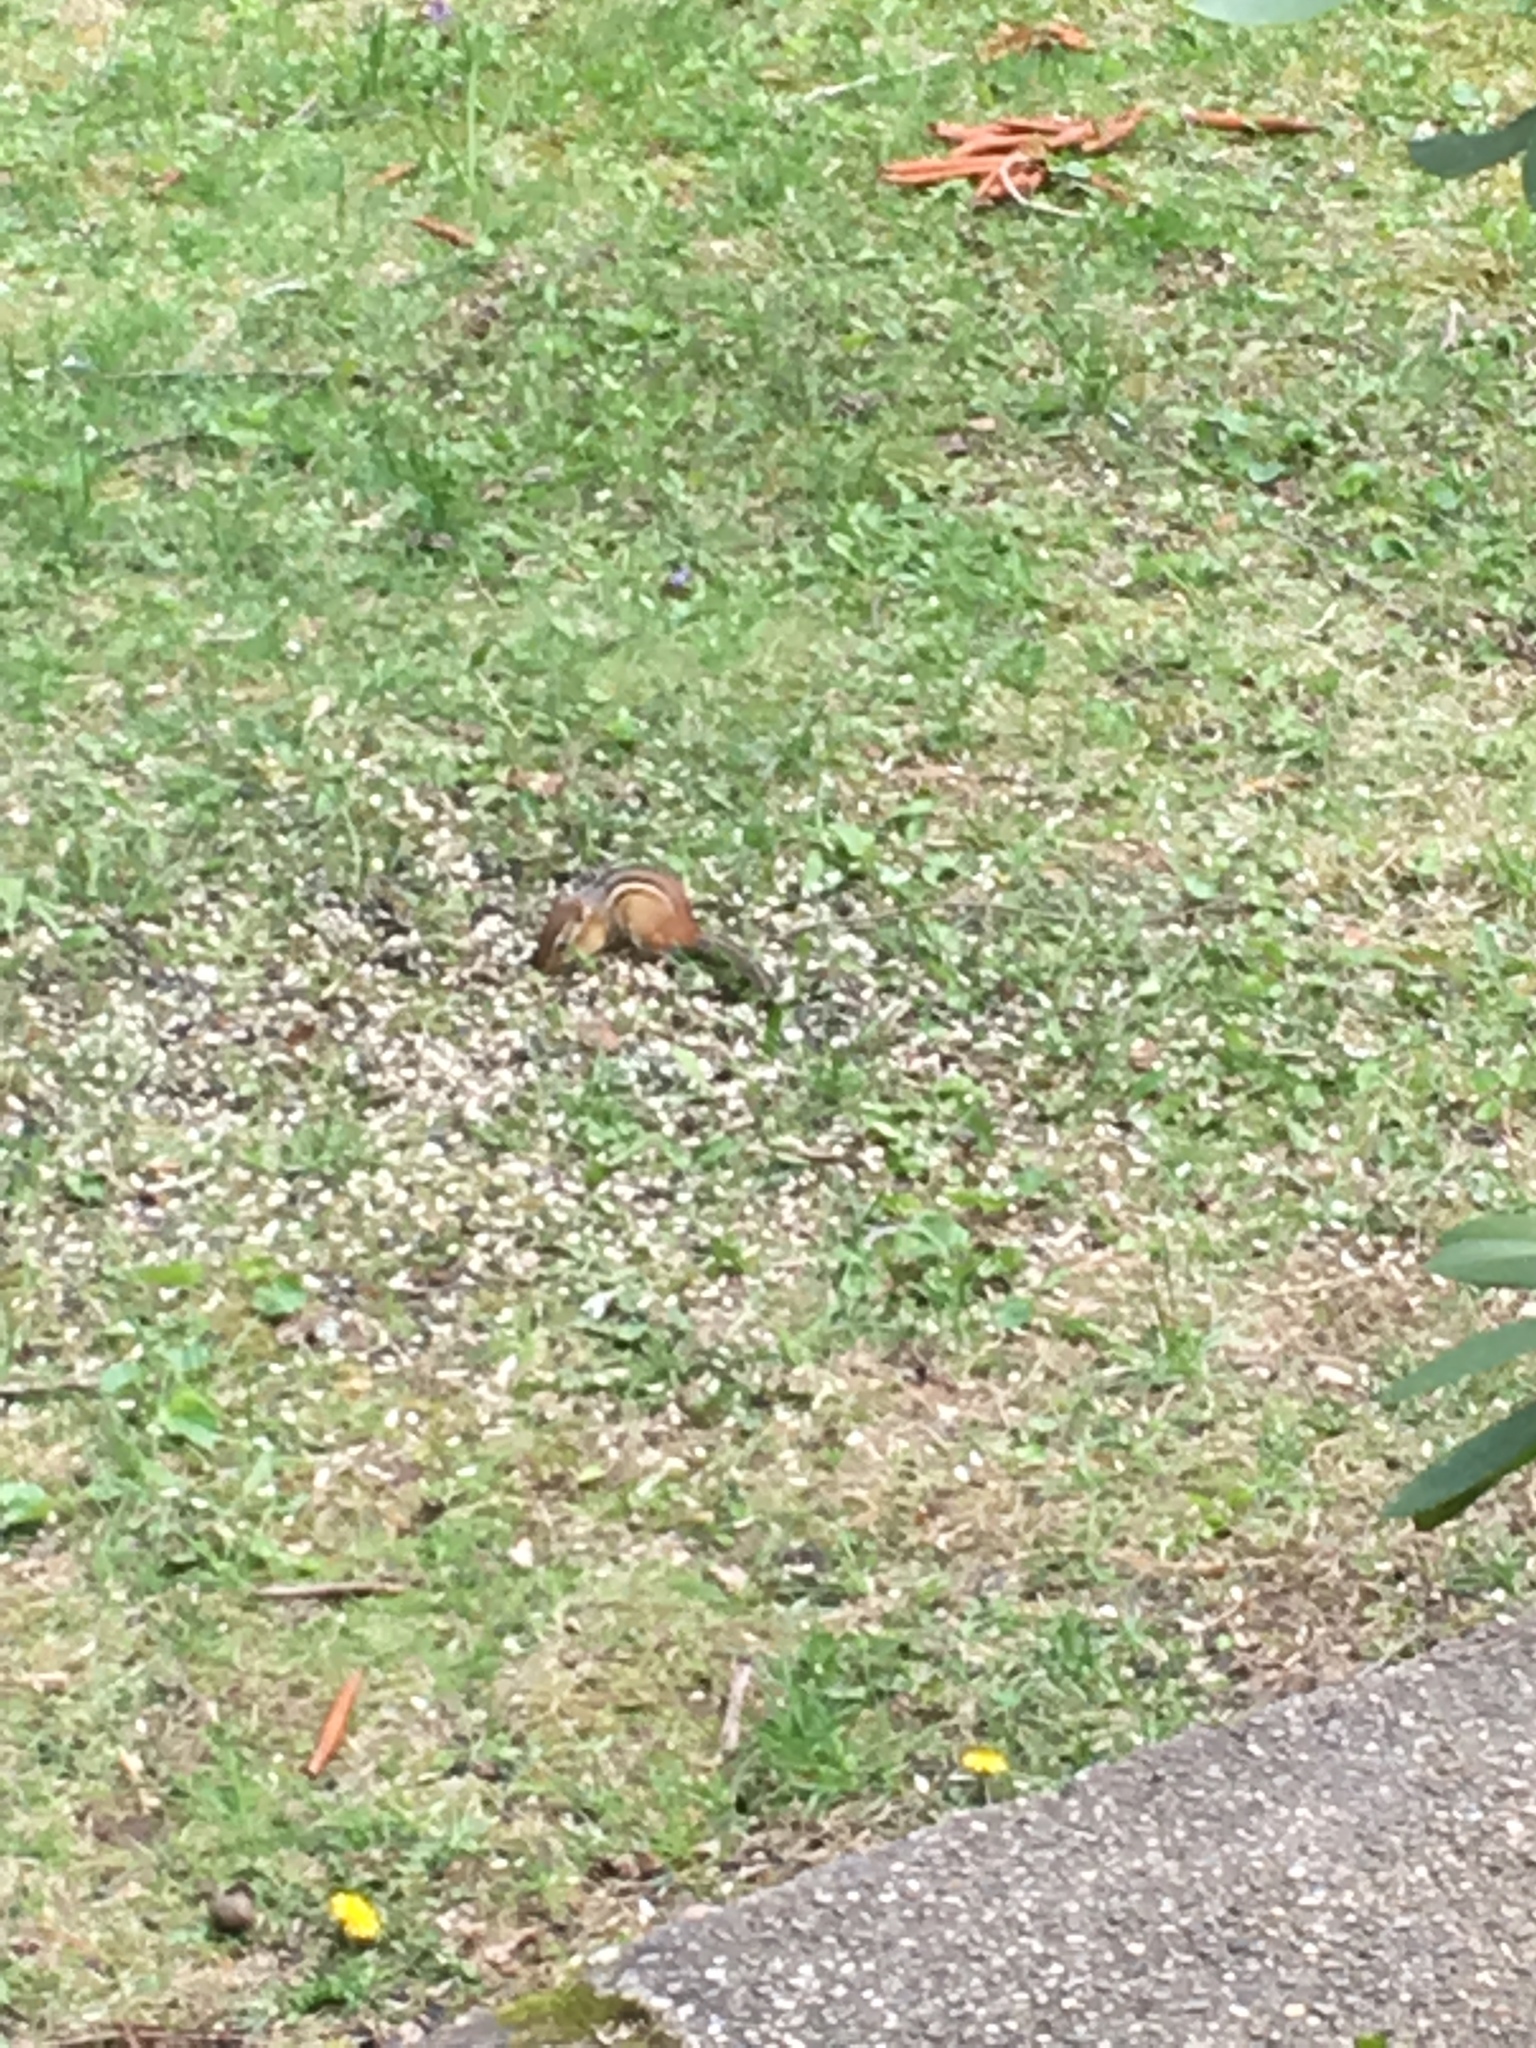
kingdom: Animalia
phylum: Chordata
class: Mammalia
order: Rodentia
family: Sciuridae
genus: Tamias
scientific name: Tamias striatus
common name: Eastern chipmunk
